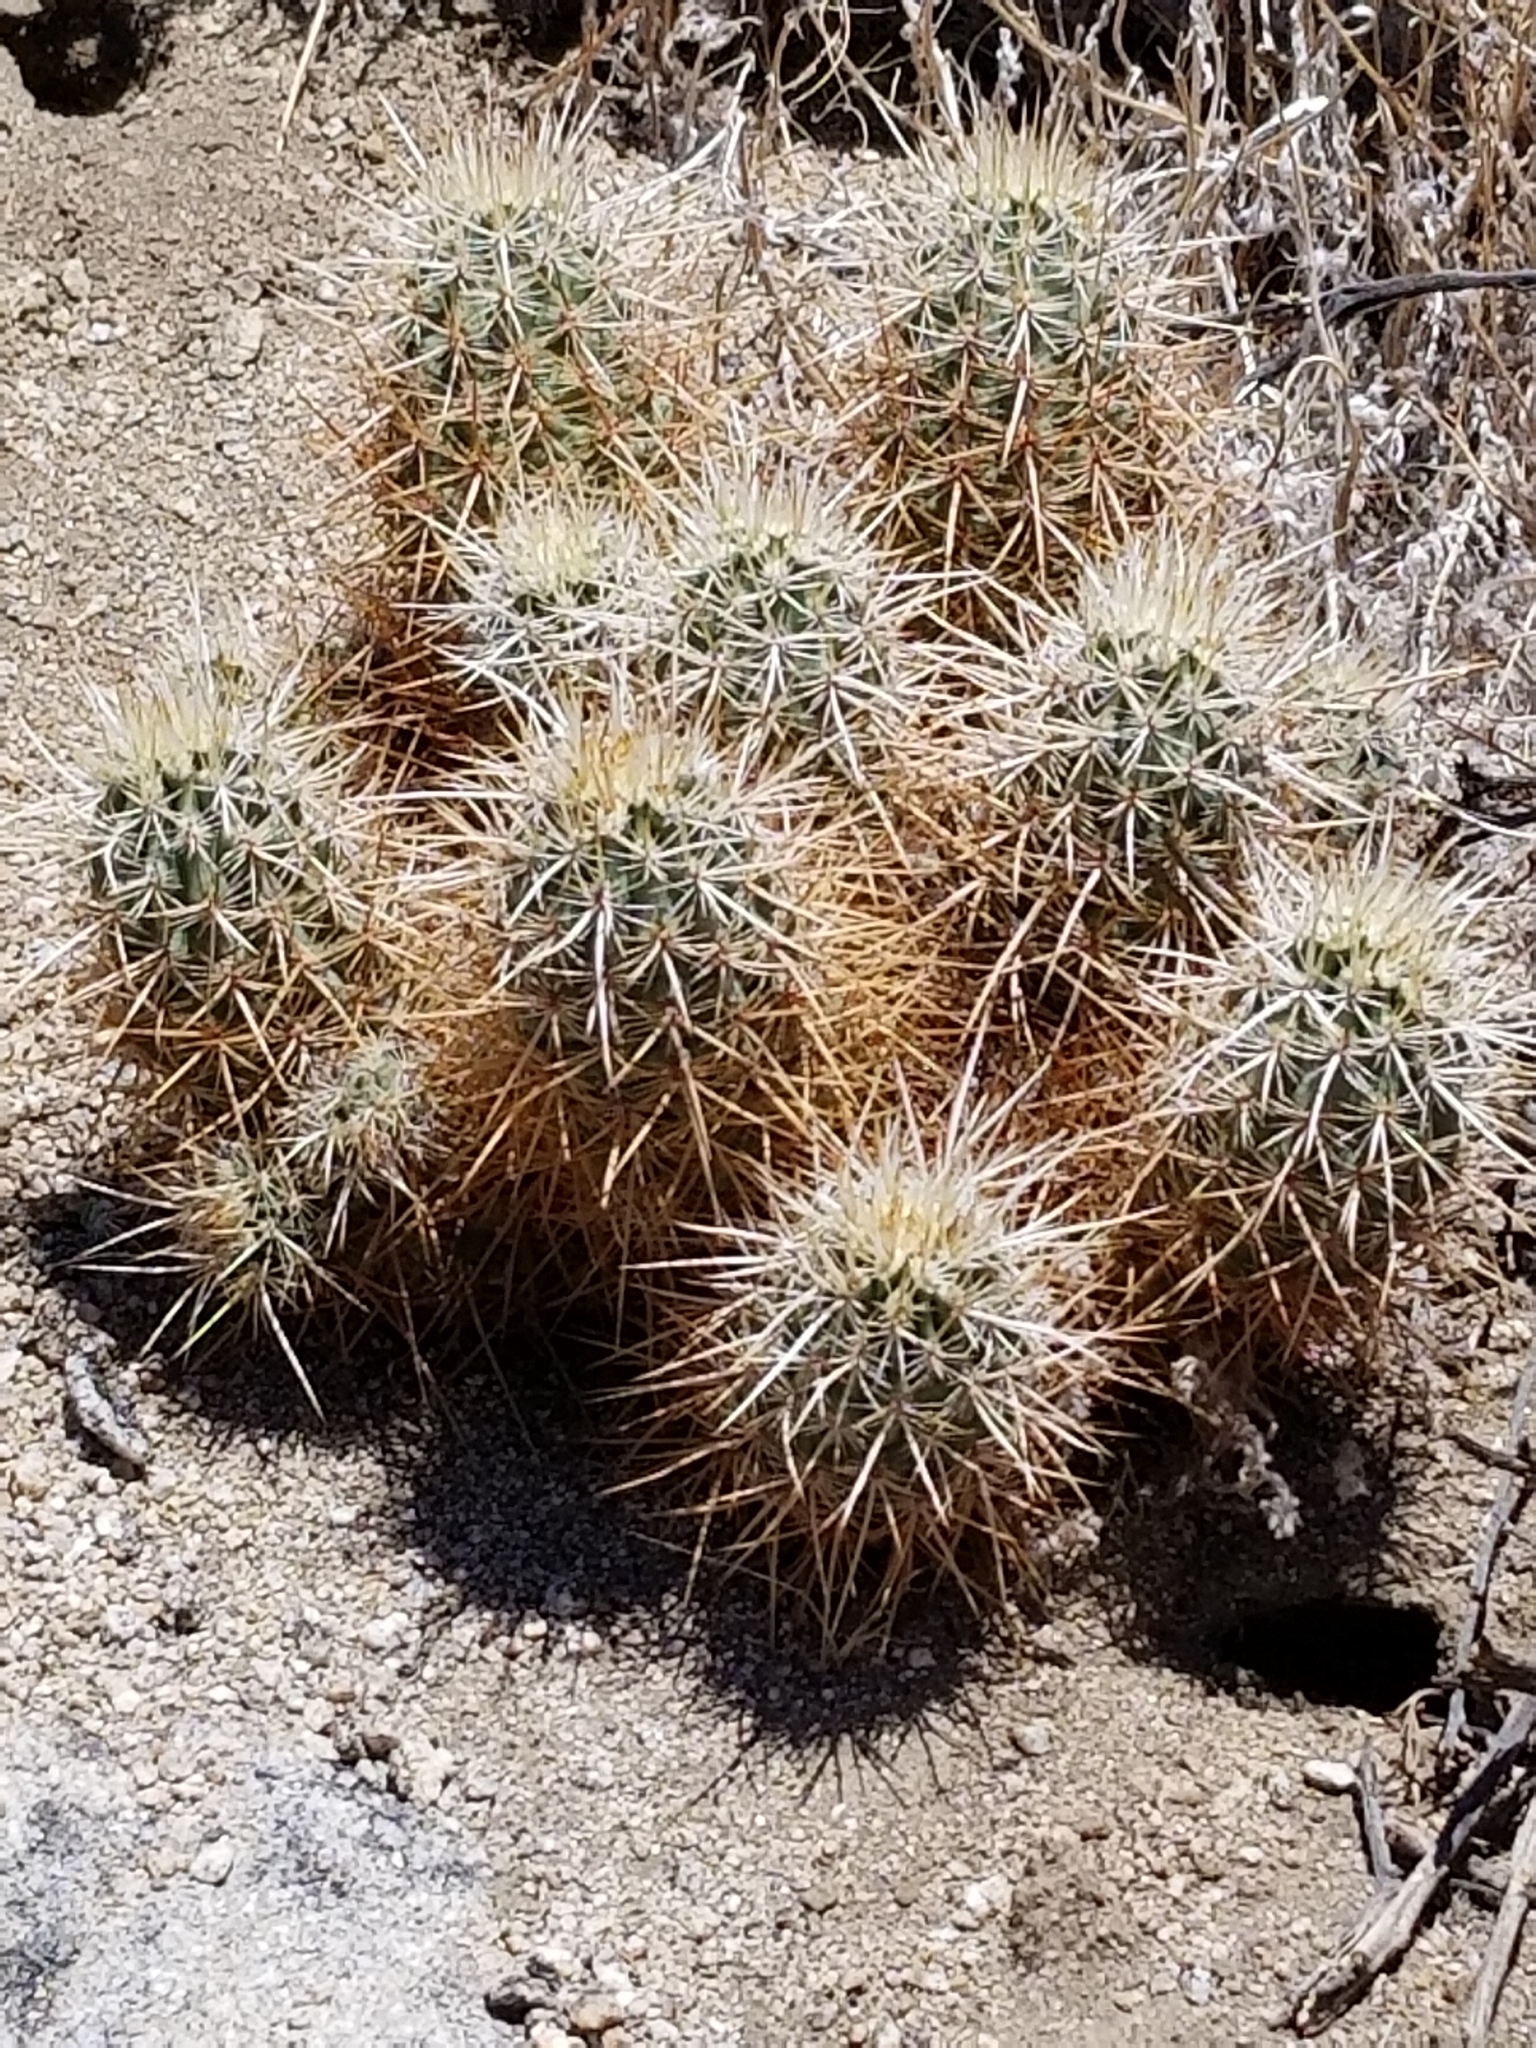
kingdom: Plantae
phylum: Tracheophyta
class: Magnoliopsida
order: Caryophyllales
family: Cactaceae
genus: Echinocereus
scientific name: Echinocereus engelmannii
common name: Engelmann's hedgehog cactus
